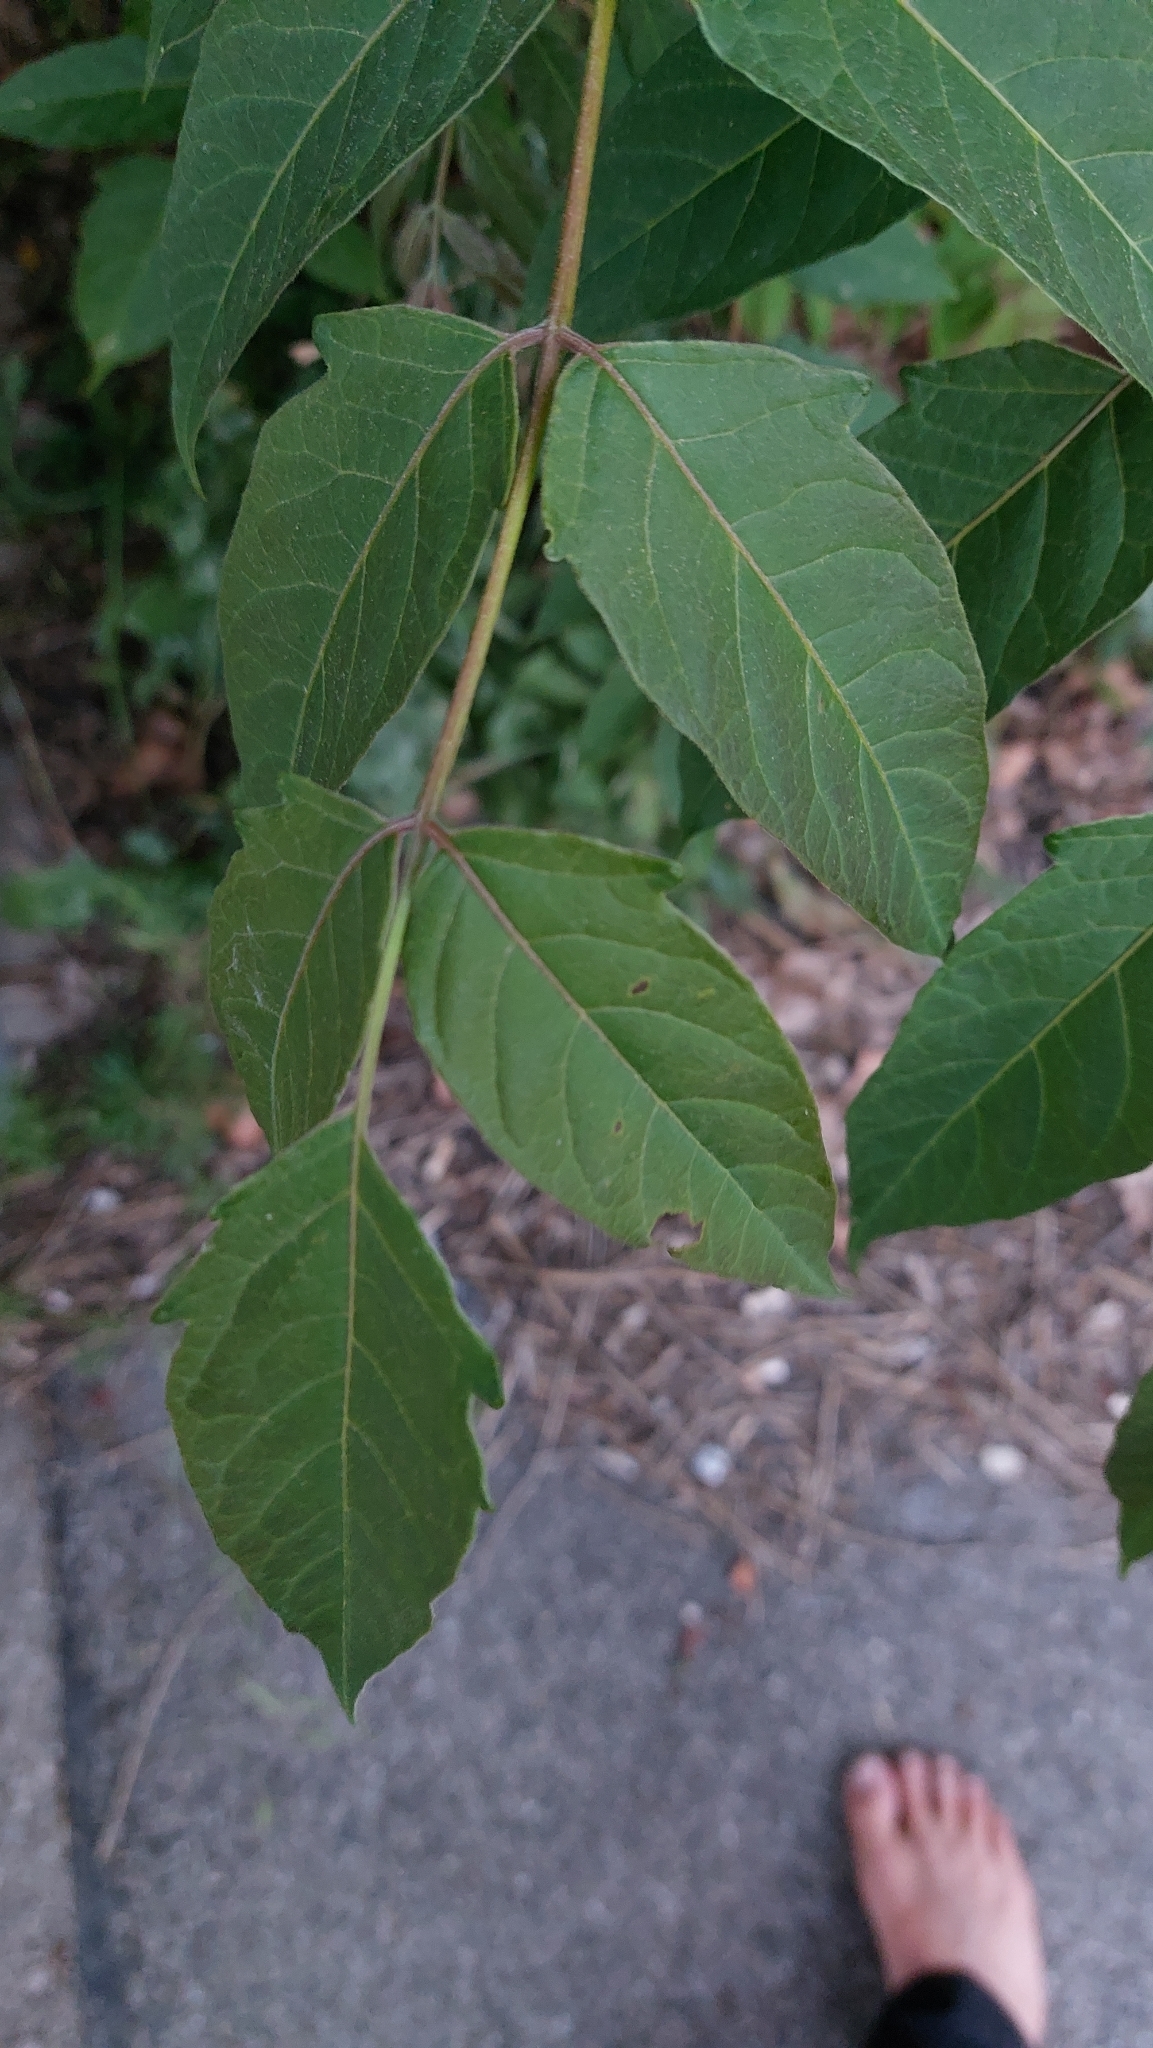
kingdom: Plantae
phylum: Tracheophyta
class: Magnoliopsida
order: Sapindales
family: Simaroubaceae
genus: Ailanthus
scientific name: Ailanthus altissima
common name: Tree-of-heaven
